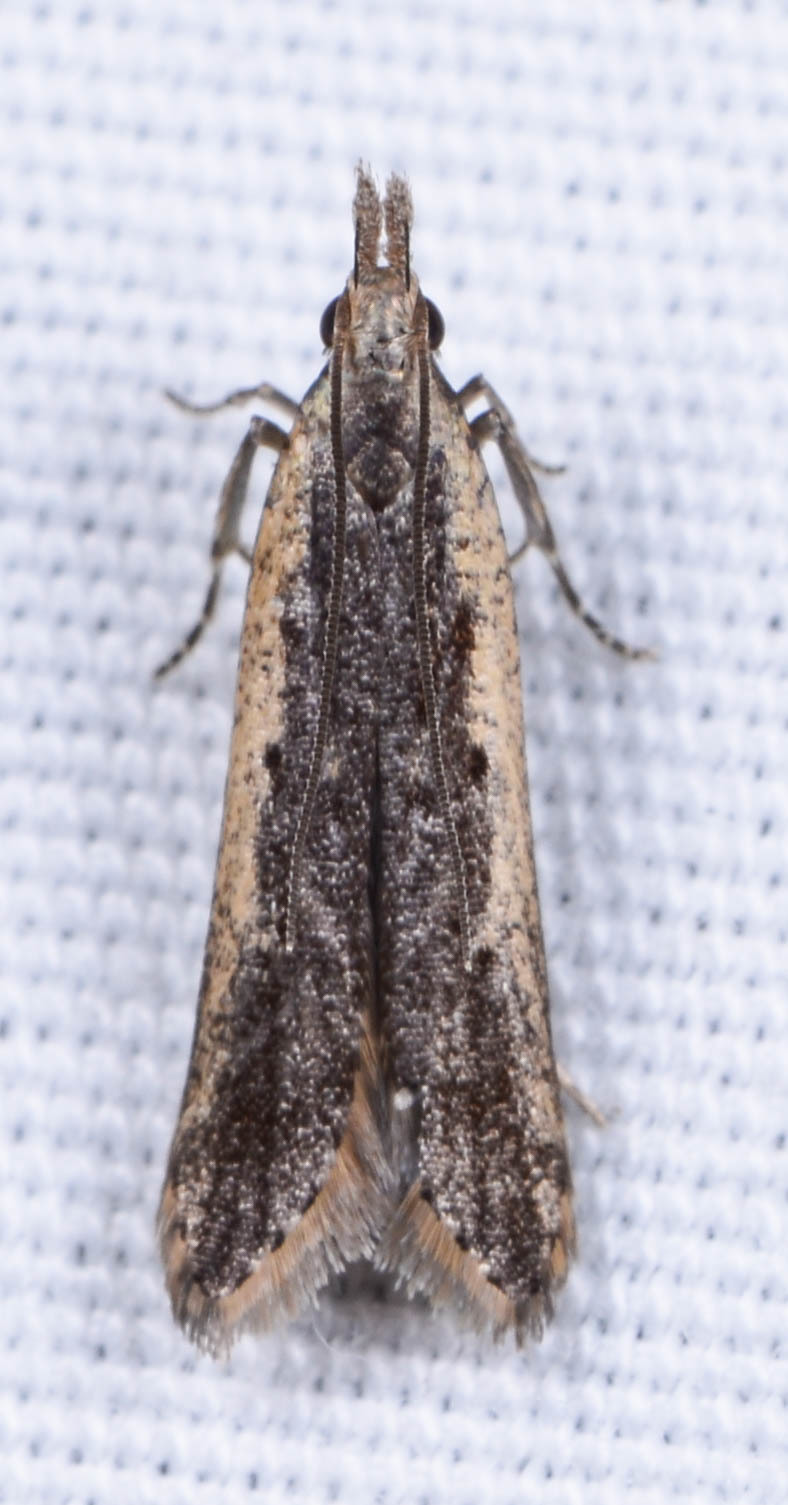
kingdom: Animalia
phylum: Arthropoda
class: Insecta
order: Lepidoptera
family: Gelechiidae
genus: Dichomeris
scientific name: Dichomeris ligulella
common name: Moth
